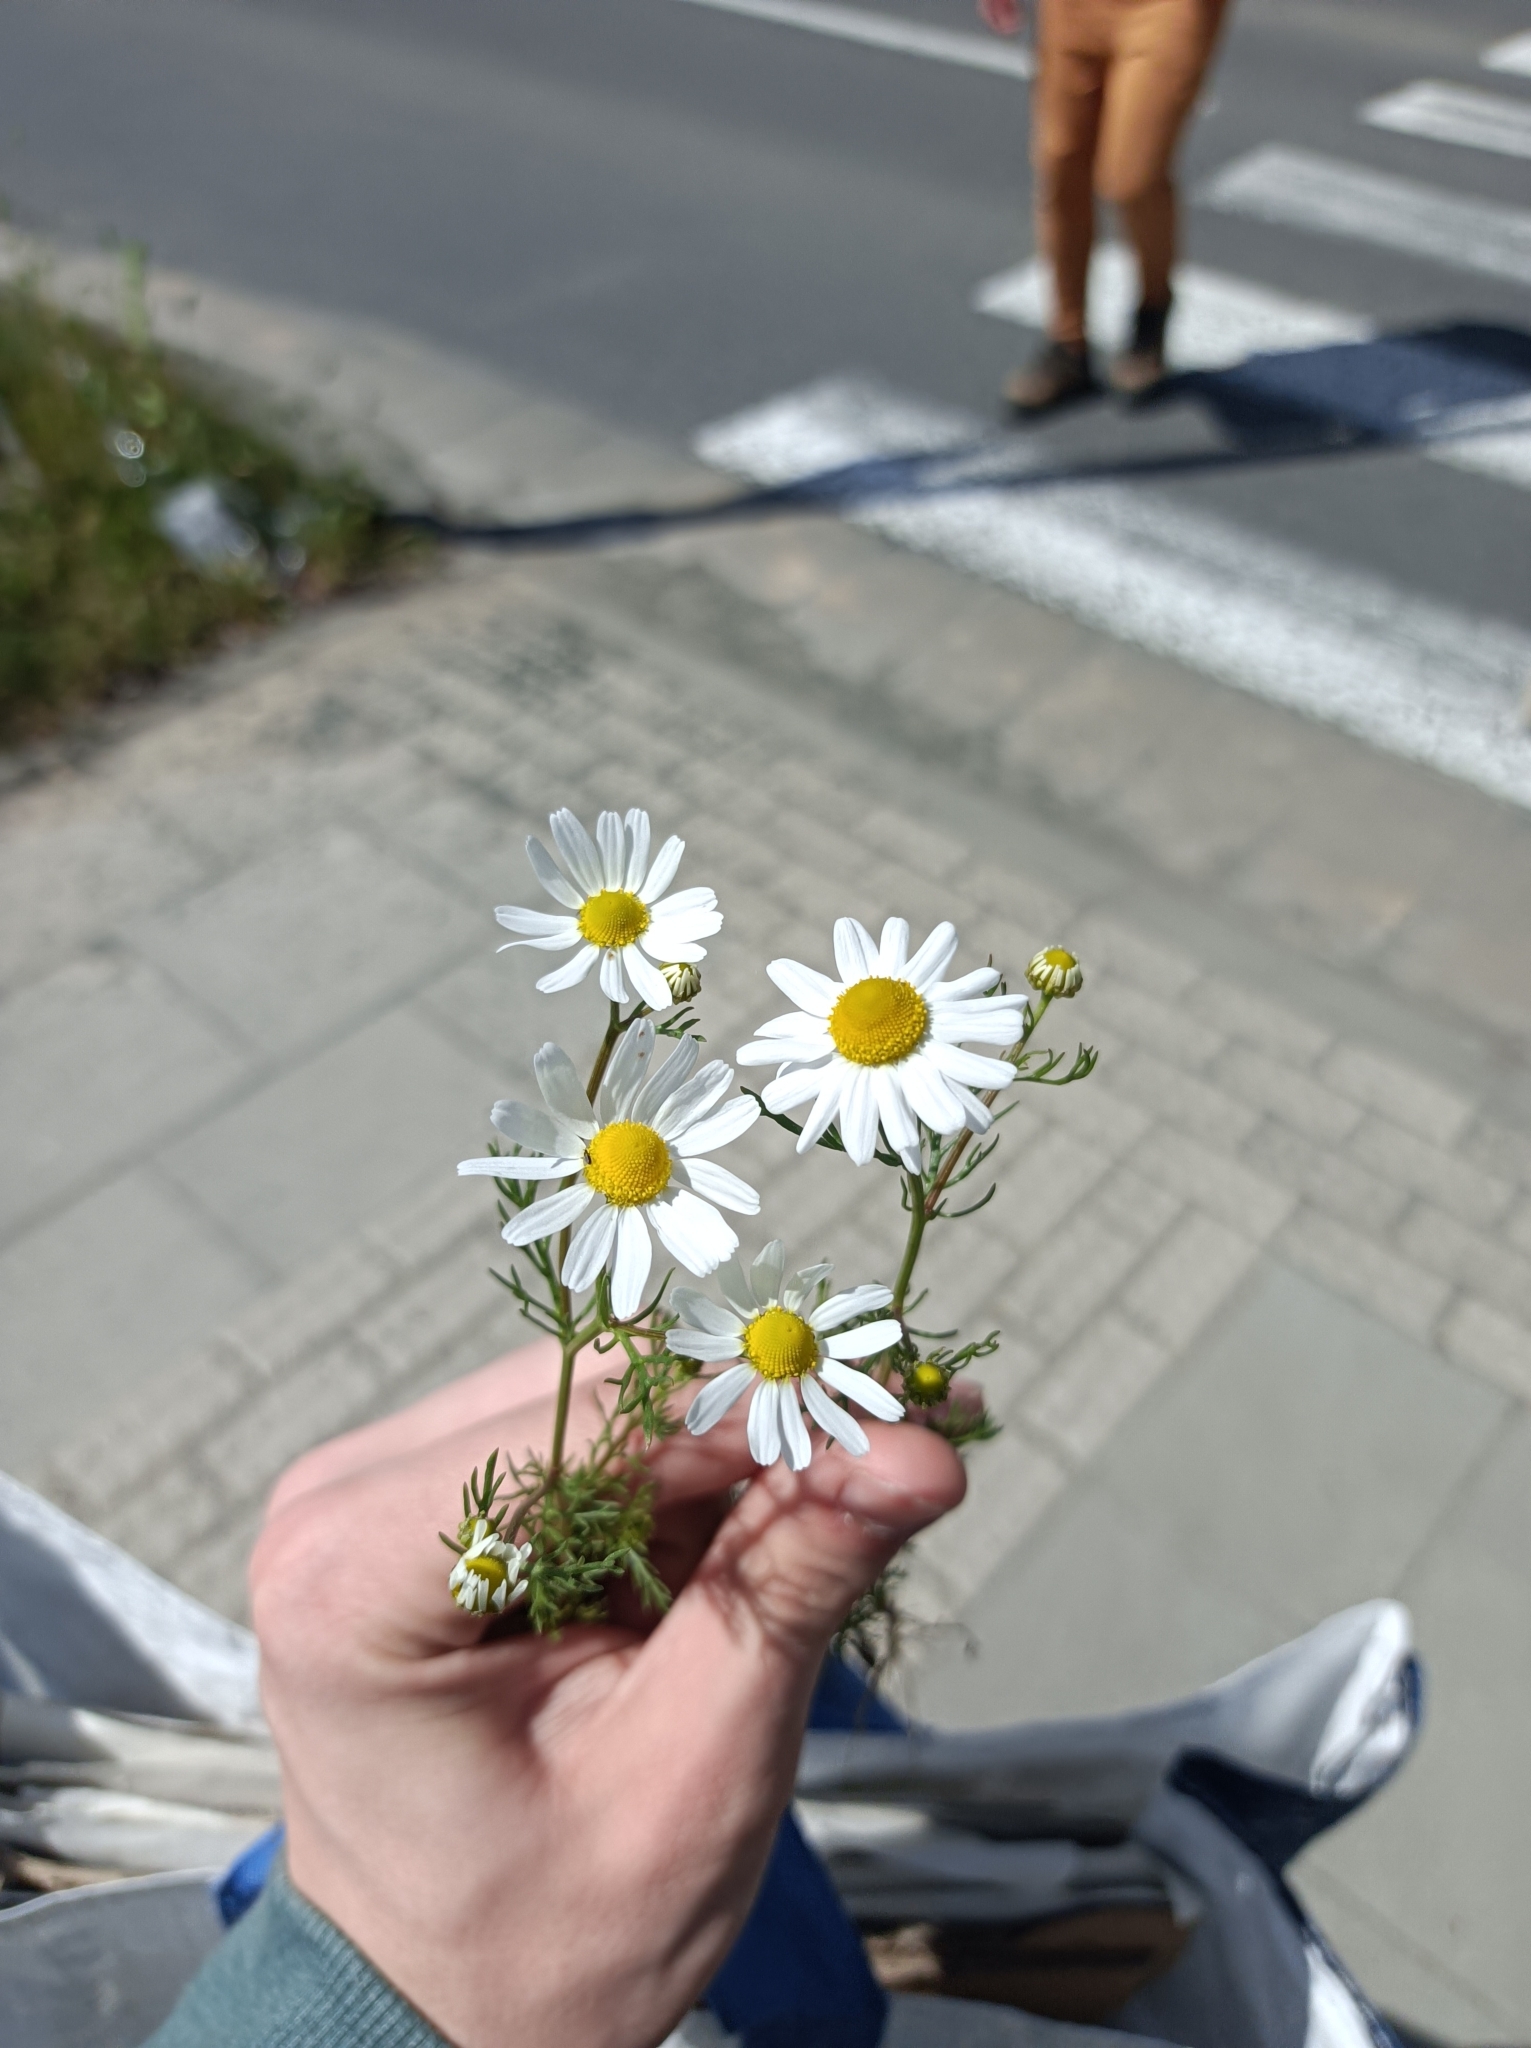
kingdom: Plantae
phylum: Tracheophyta
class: Magnoliopsida
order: Asterales
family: Asteraceae
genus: Tripleurospermum
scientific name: Tripleurospermum inodorum
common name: Scentless mayweed
